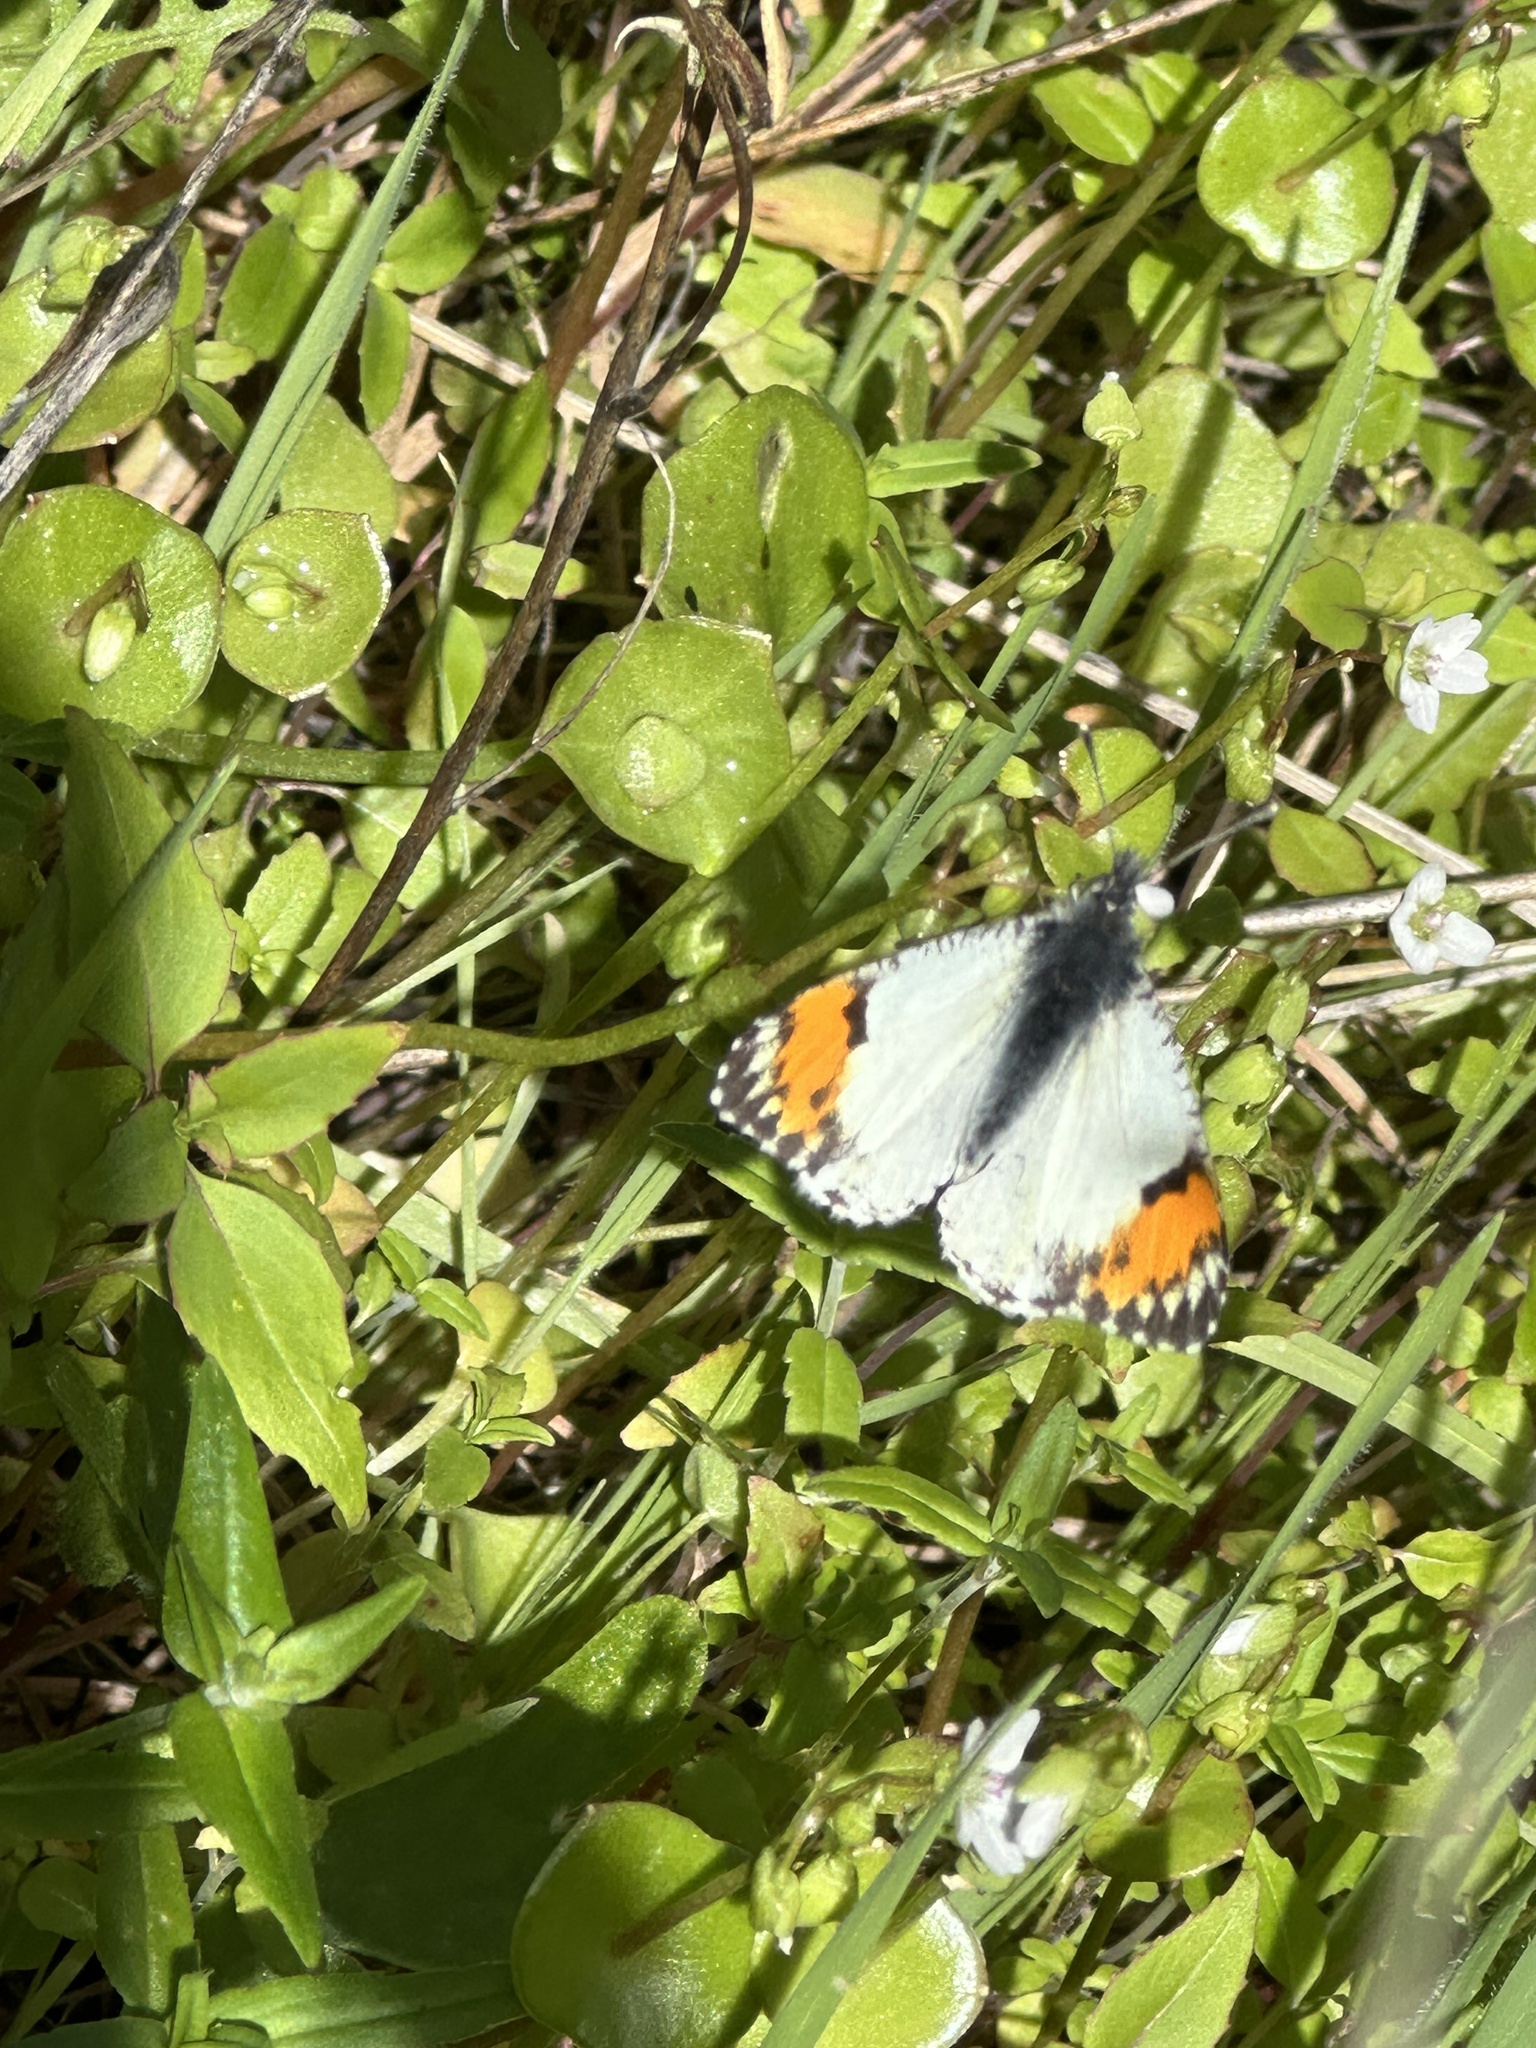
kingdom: Animalia
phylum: Arthropoda
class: Insecta
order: Lepidoptera
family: Pieridae
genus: Anthocharis
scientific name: Anthocharis sara
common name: Sara's orangetip
